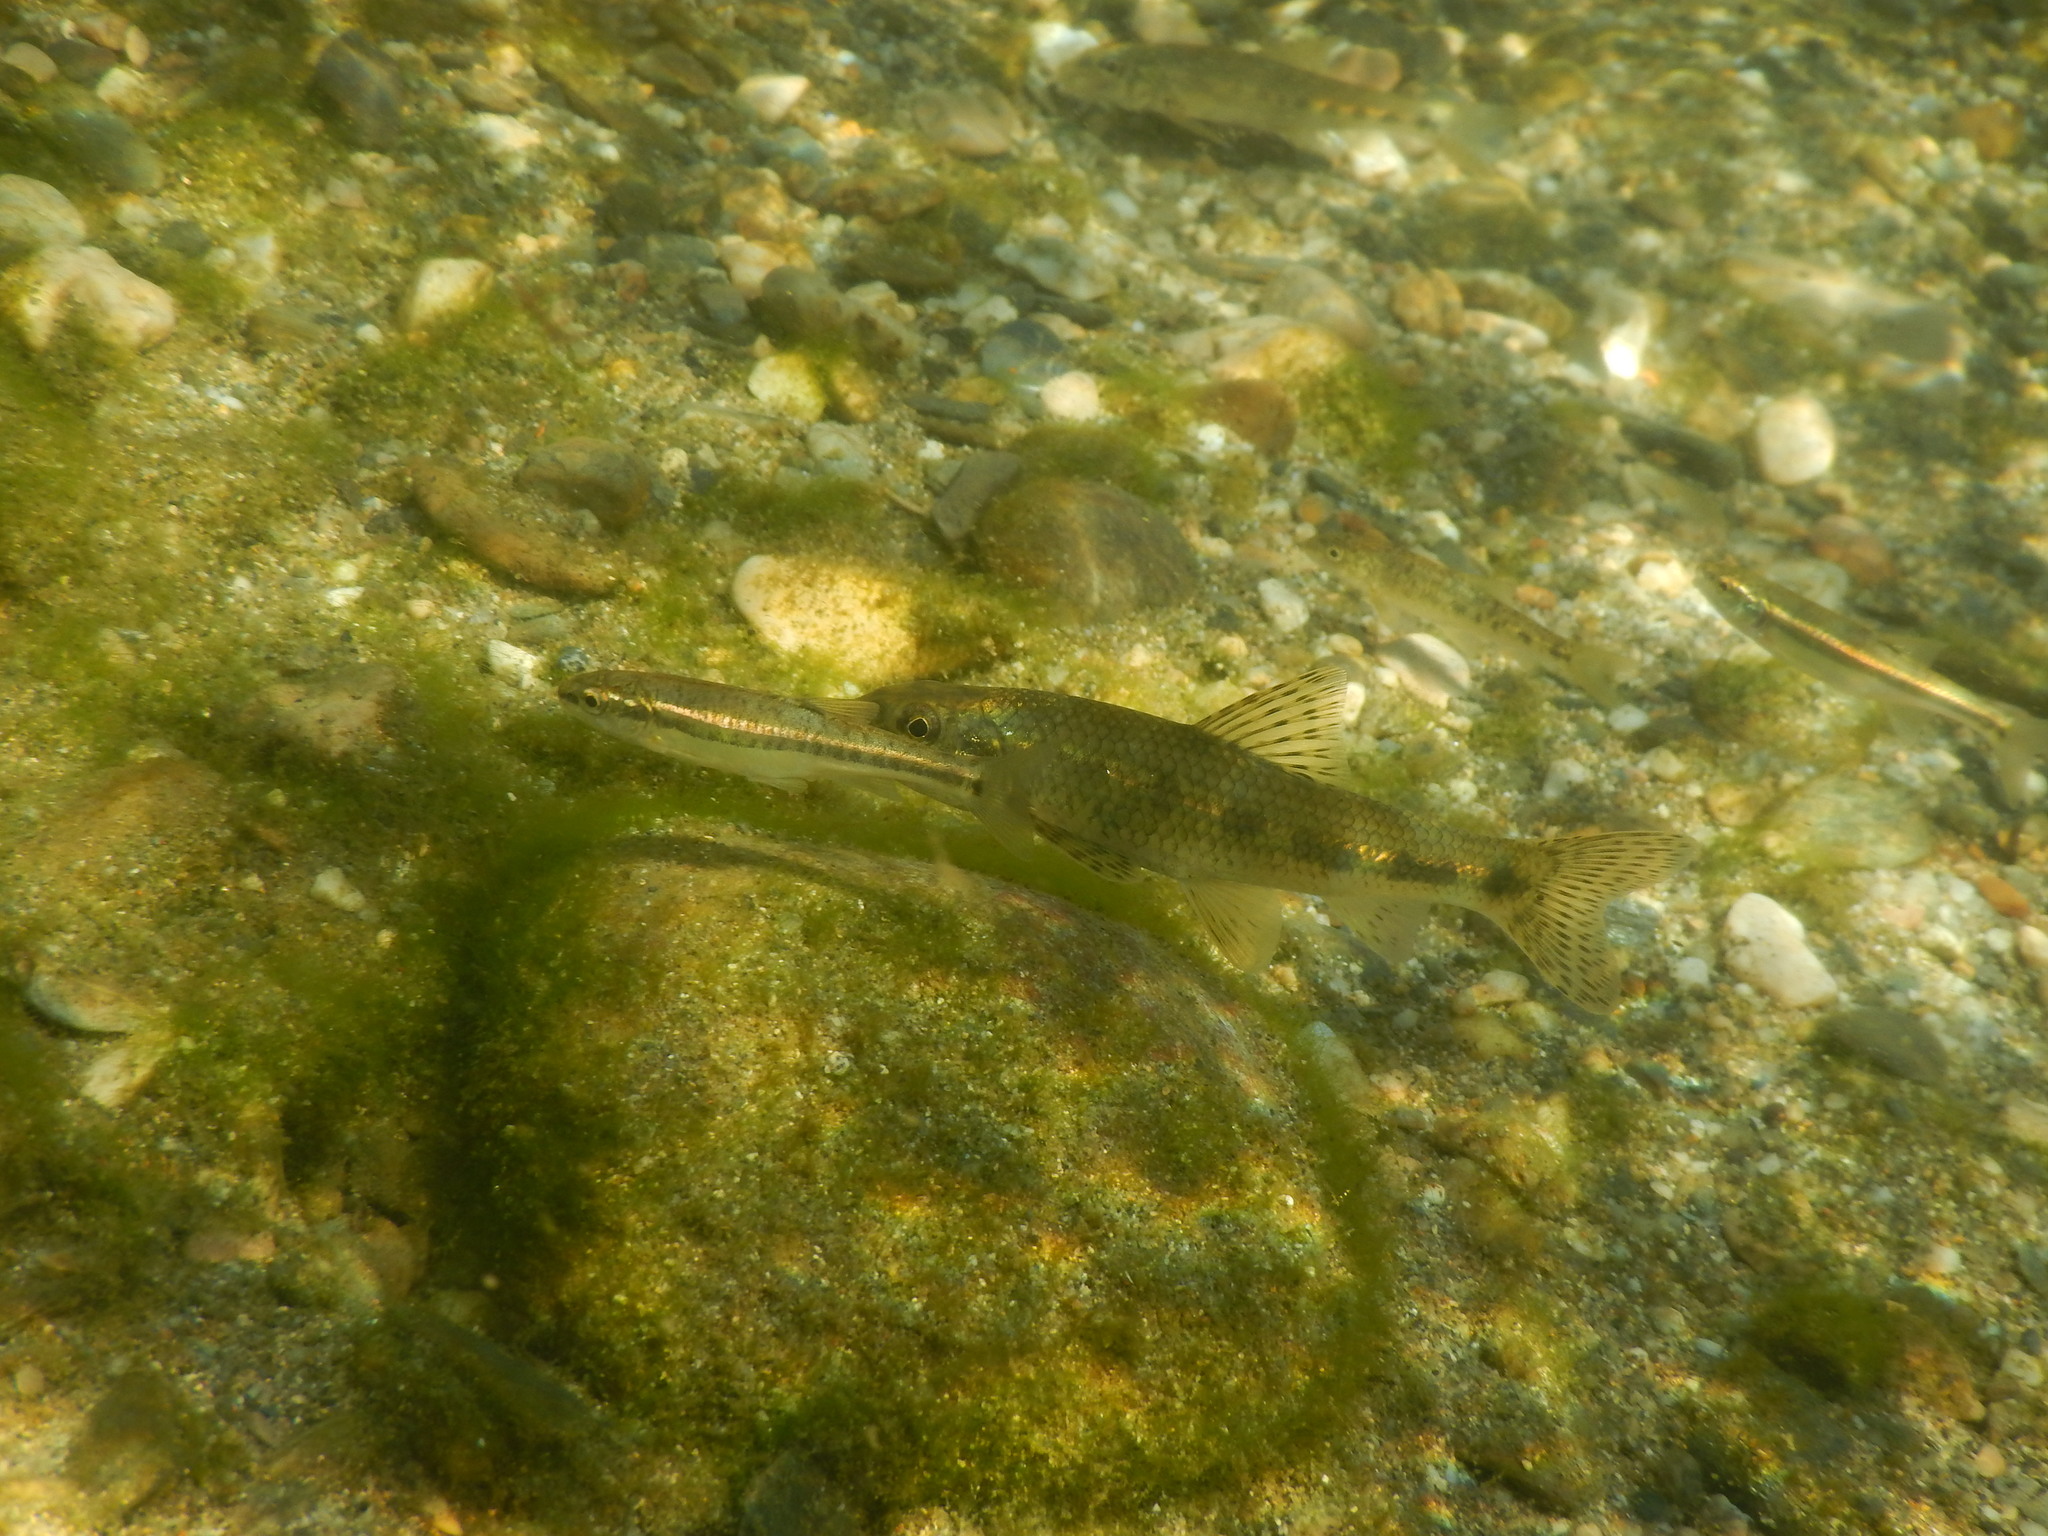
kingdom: Animalia
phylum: Chordata
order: Cypriniformes
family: Cyprinidae
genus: Phoxinus
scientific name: Phoxinus septimaniae
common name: Languedoc minnow
